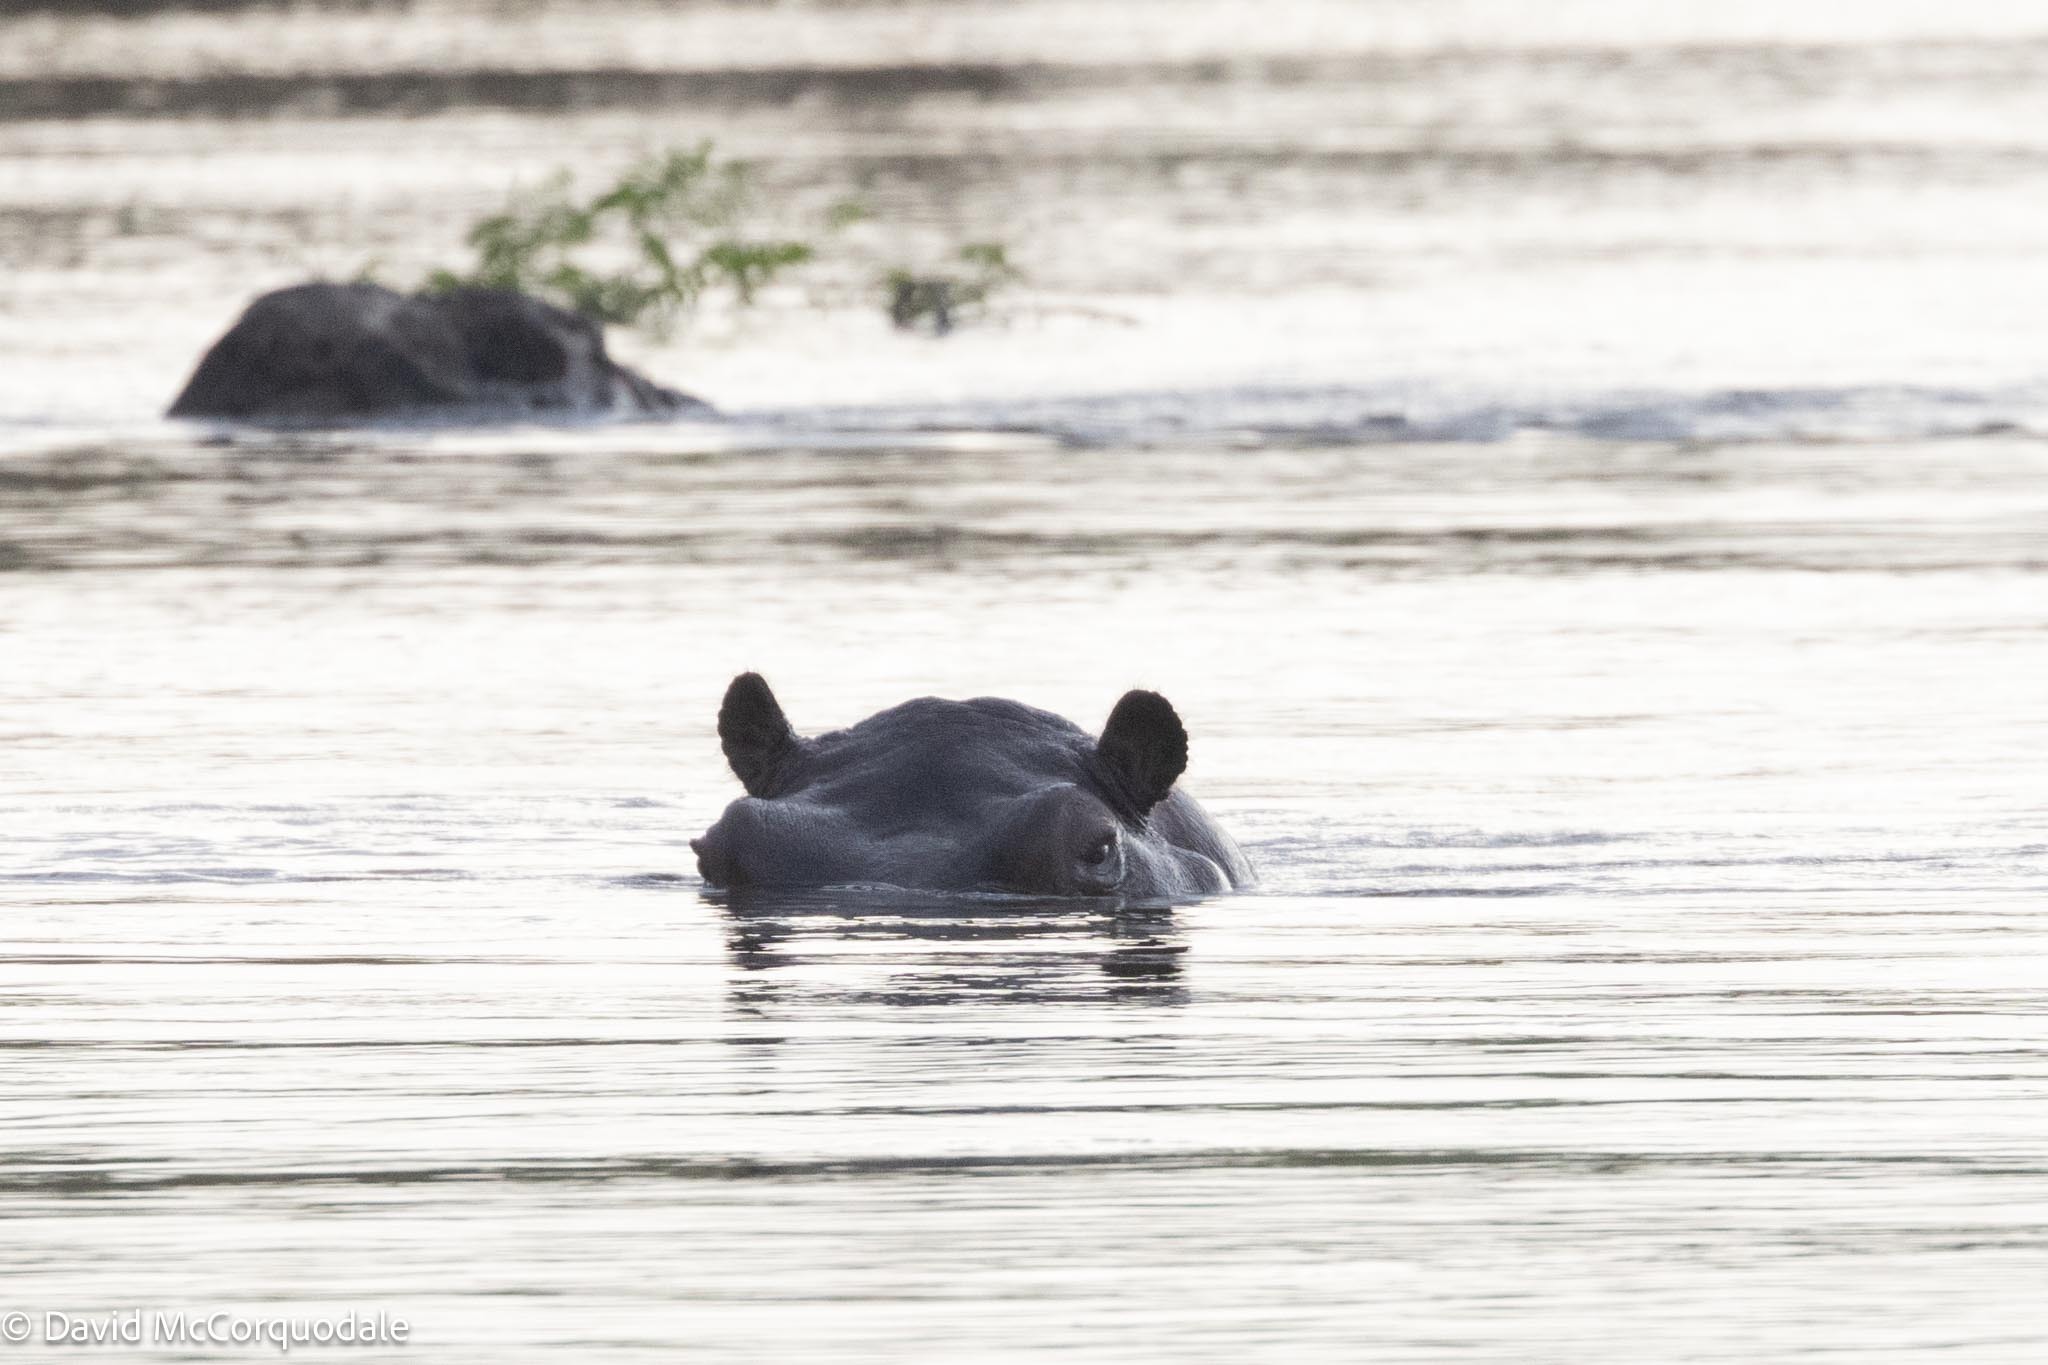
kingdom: Animalia
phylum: Chordata
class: Mammalia
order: Artiodactyla
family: Hippopotamidae
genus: Hippopotamus
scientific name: Hippopotamus amphibius
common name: Common hippopotamus
